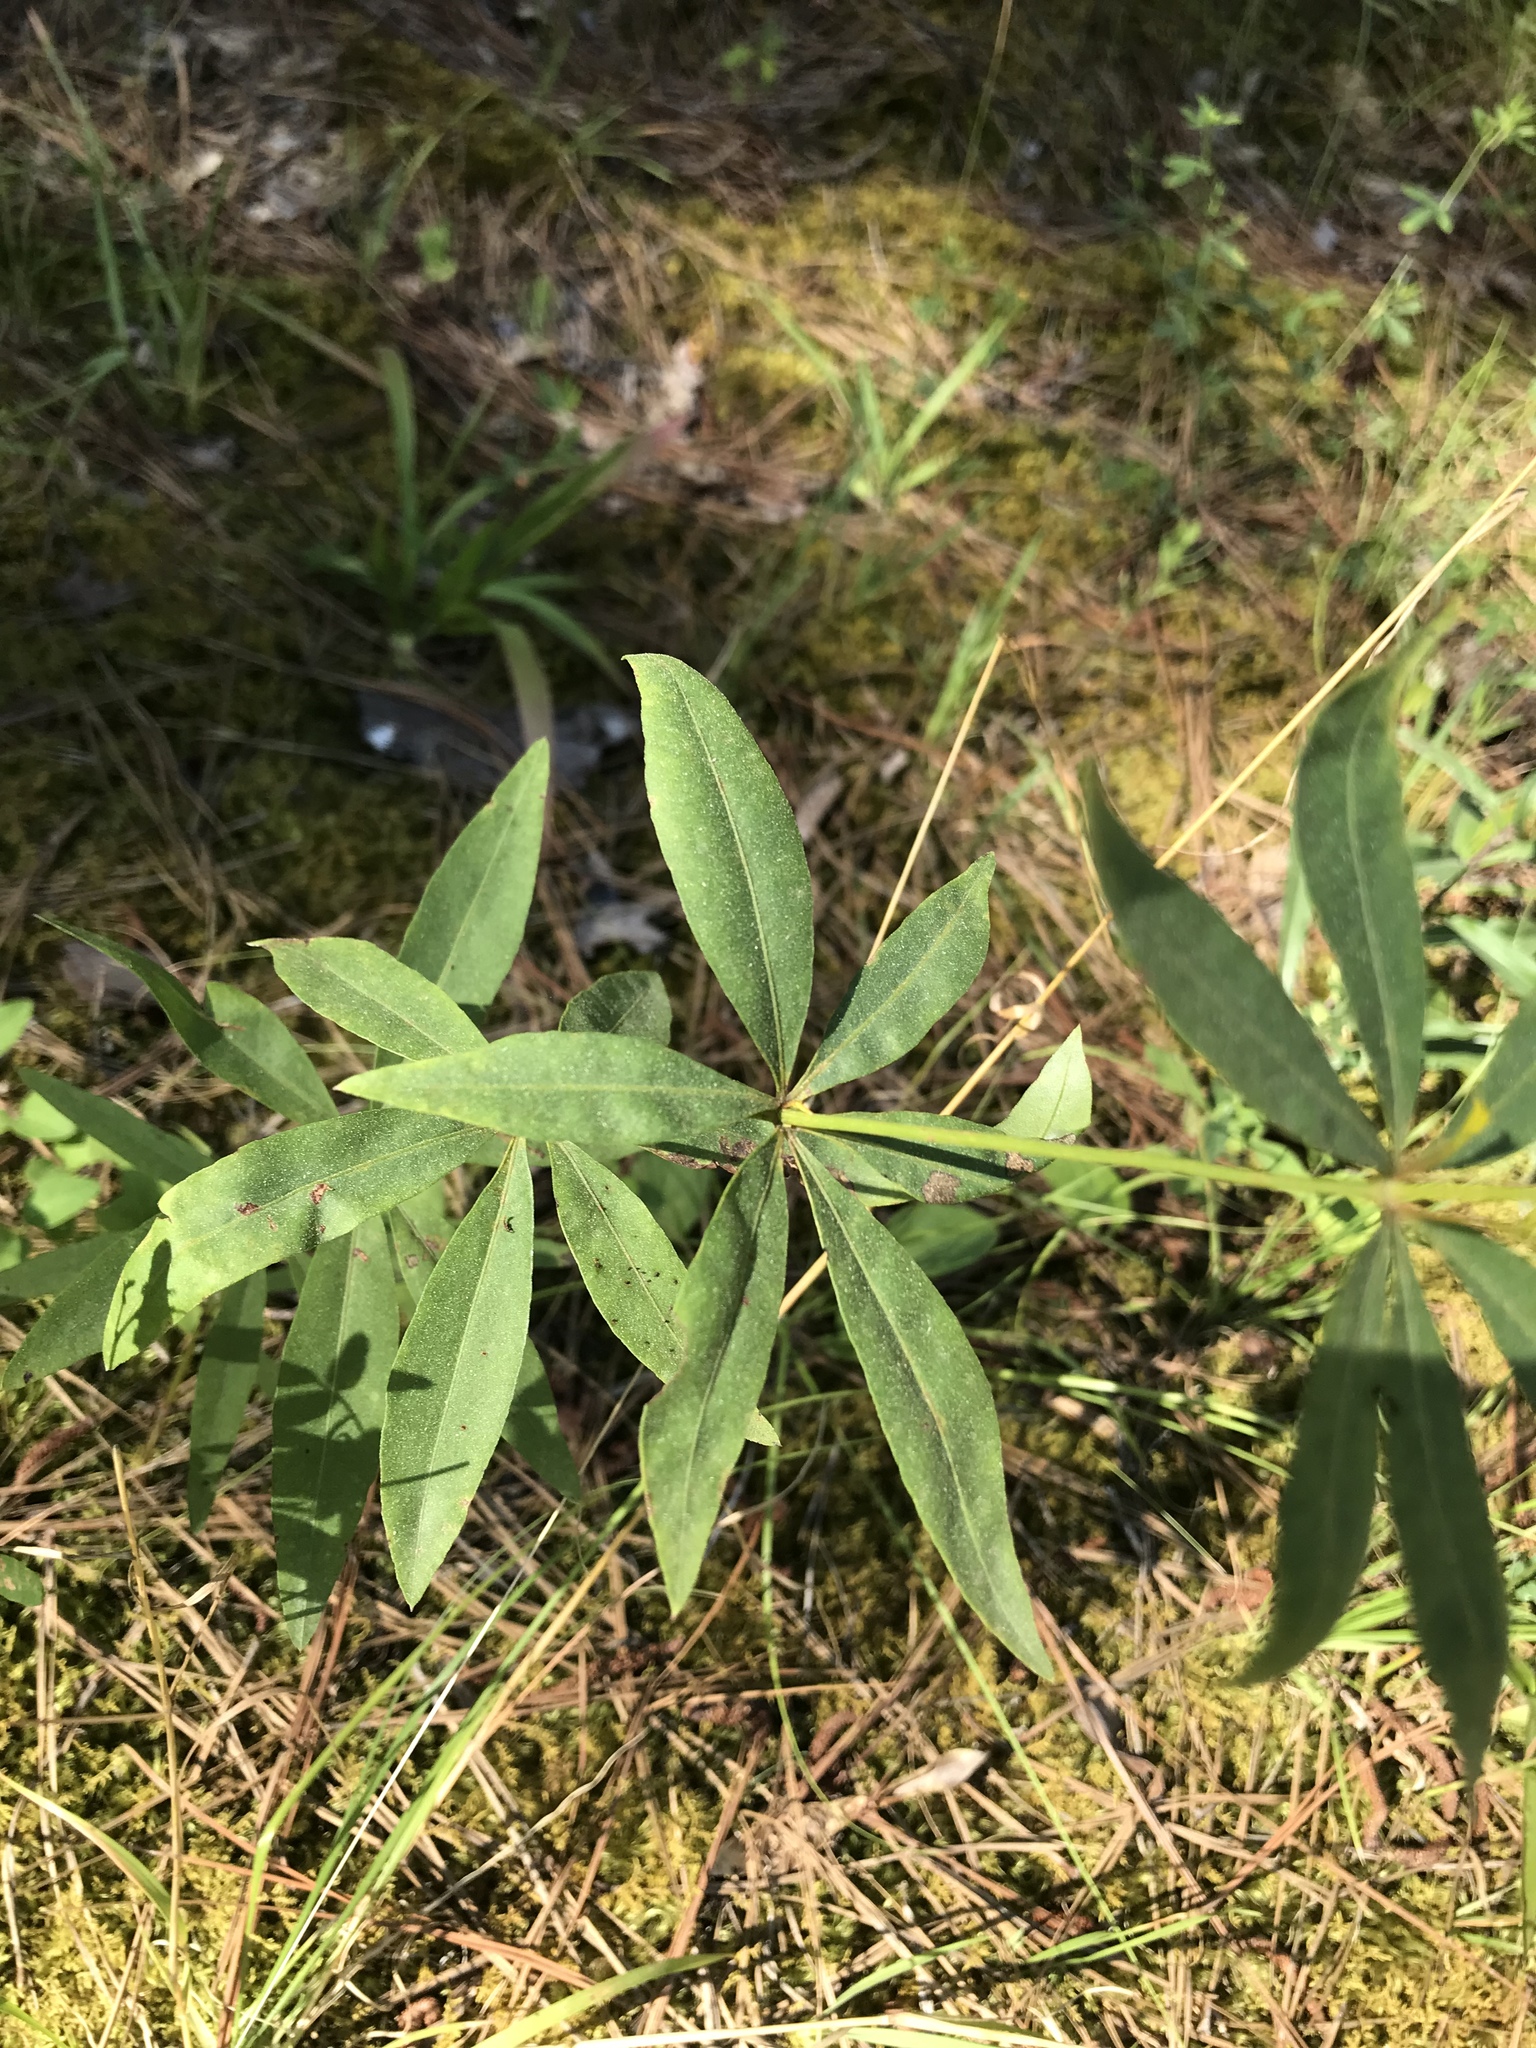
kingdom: Plantae
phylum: Tracheophyta
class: Magnoliopsida
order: Asterales
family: Asteraceae
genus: Coreopsis
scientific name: Coreopsis major
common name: Forest tickseed
